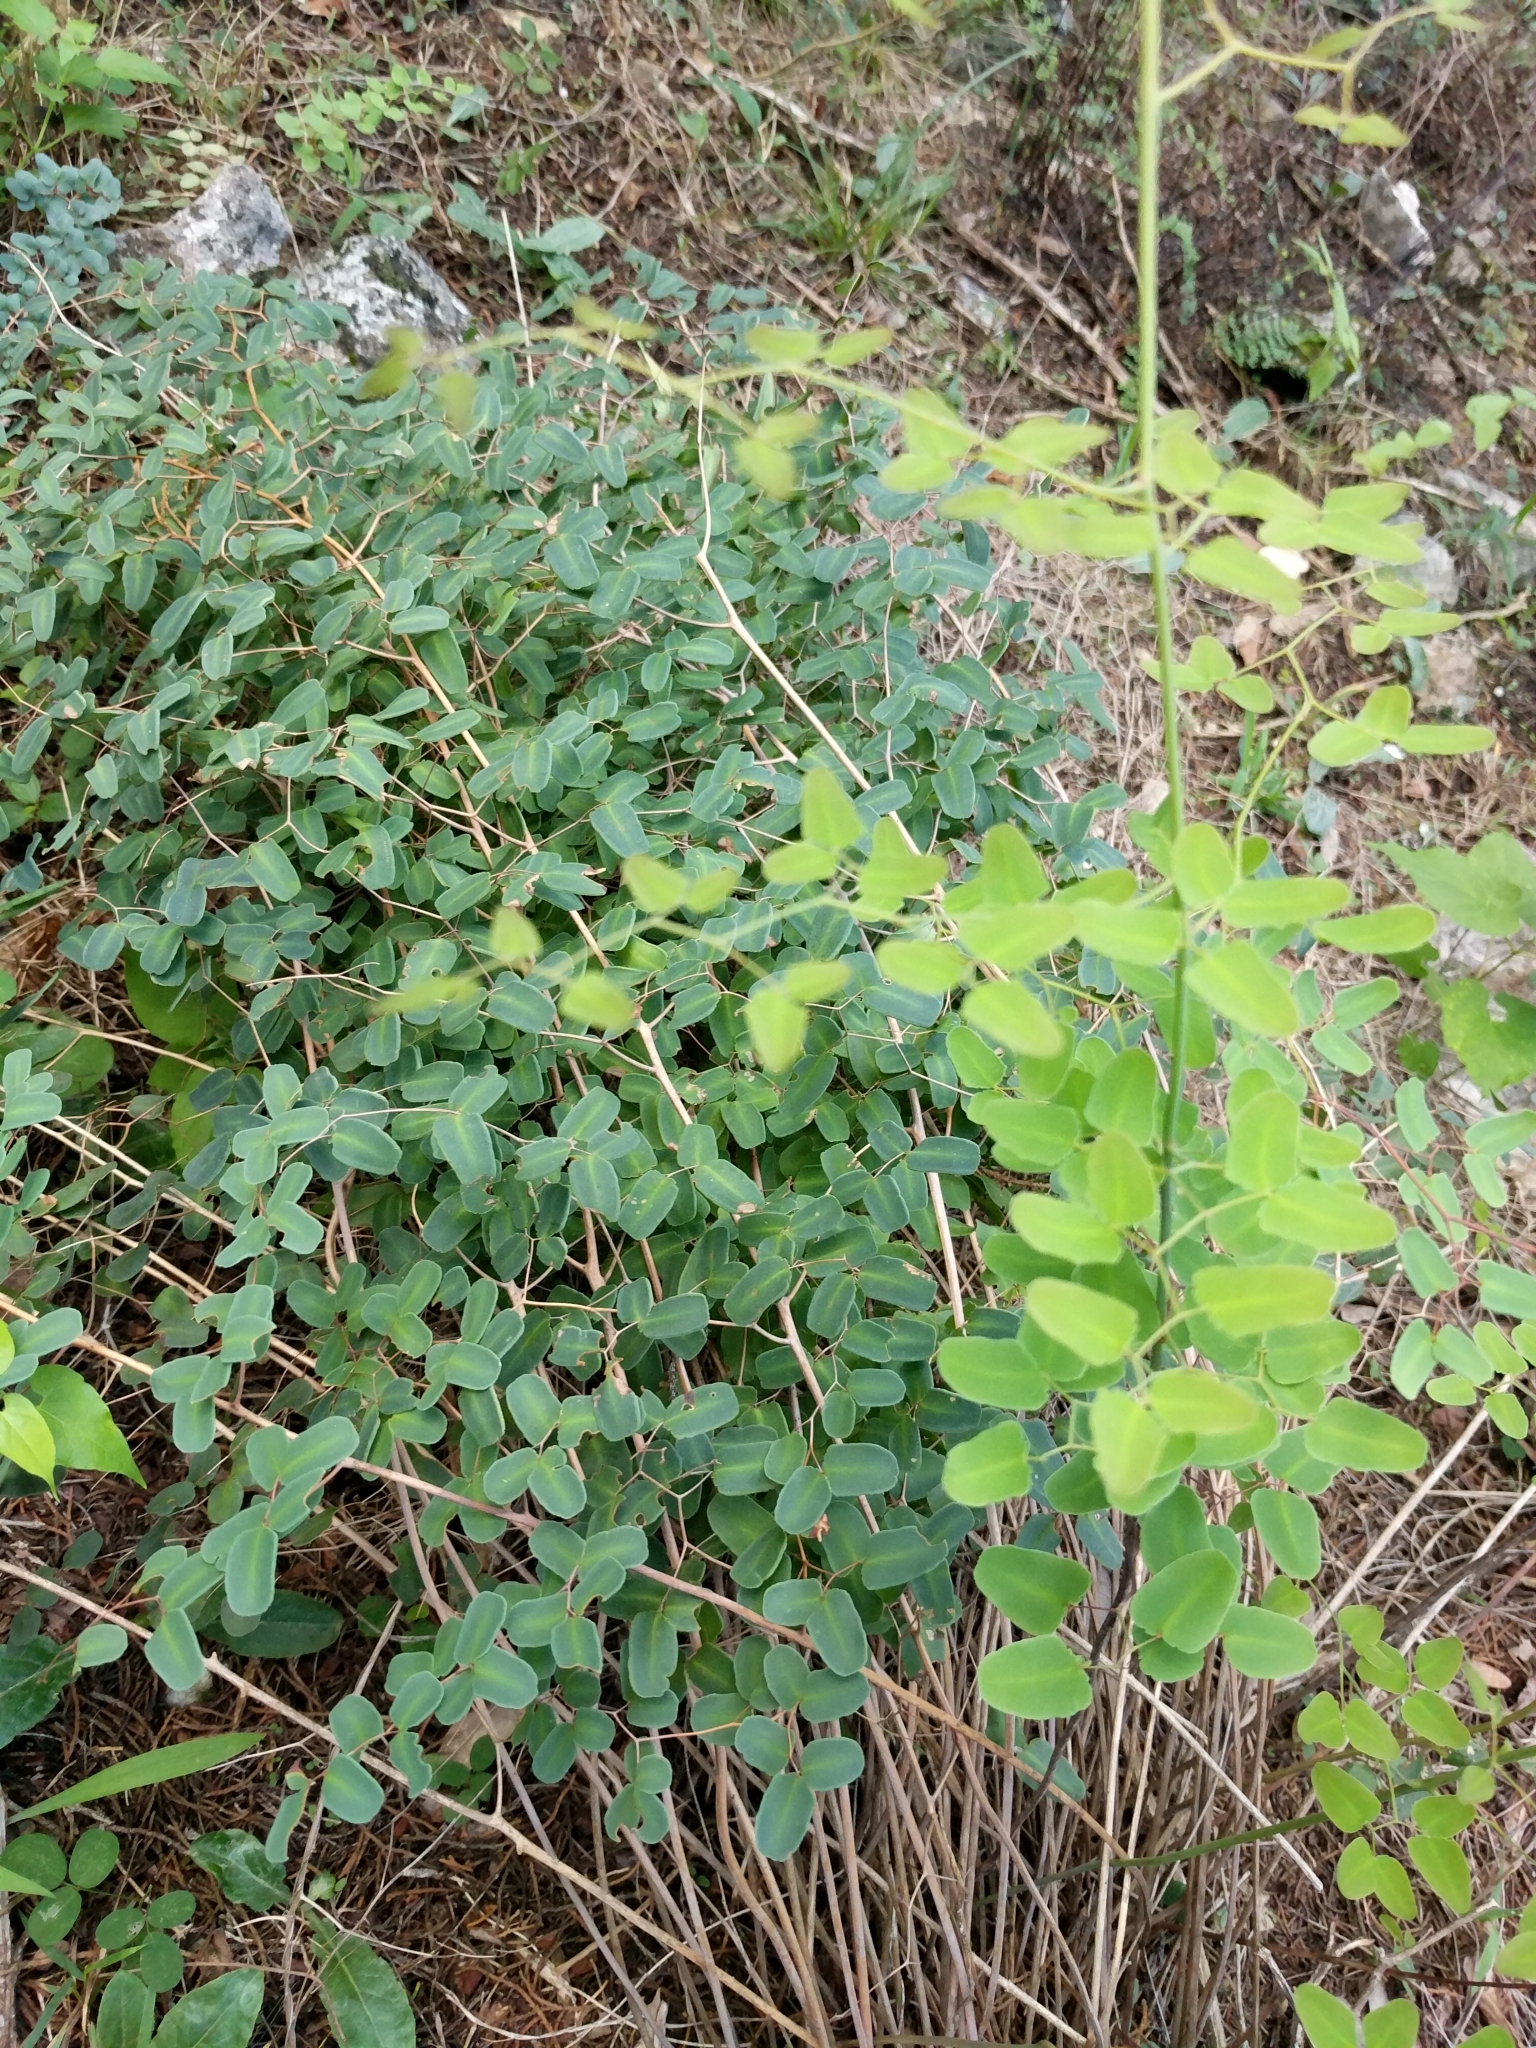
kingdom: Plantae
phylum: Tracheophyta
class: Polypodiopsida
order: Polypodiales
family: Pteridaceae
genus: Pellaea
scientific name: Pellaea ovata
